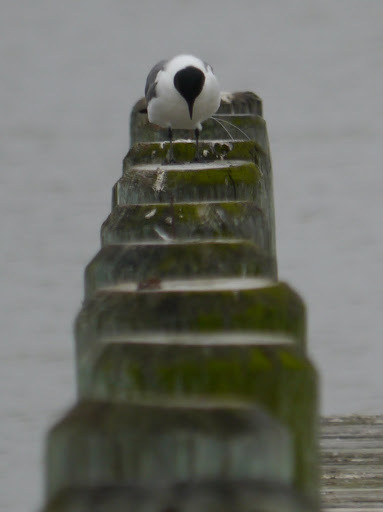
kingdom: Animalia
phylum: Chordata
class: Aves
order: Charadriiformes
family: Laridae
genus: Leucophaeus
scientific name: Leucophaeus atricilla
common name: Laughing gull
